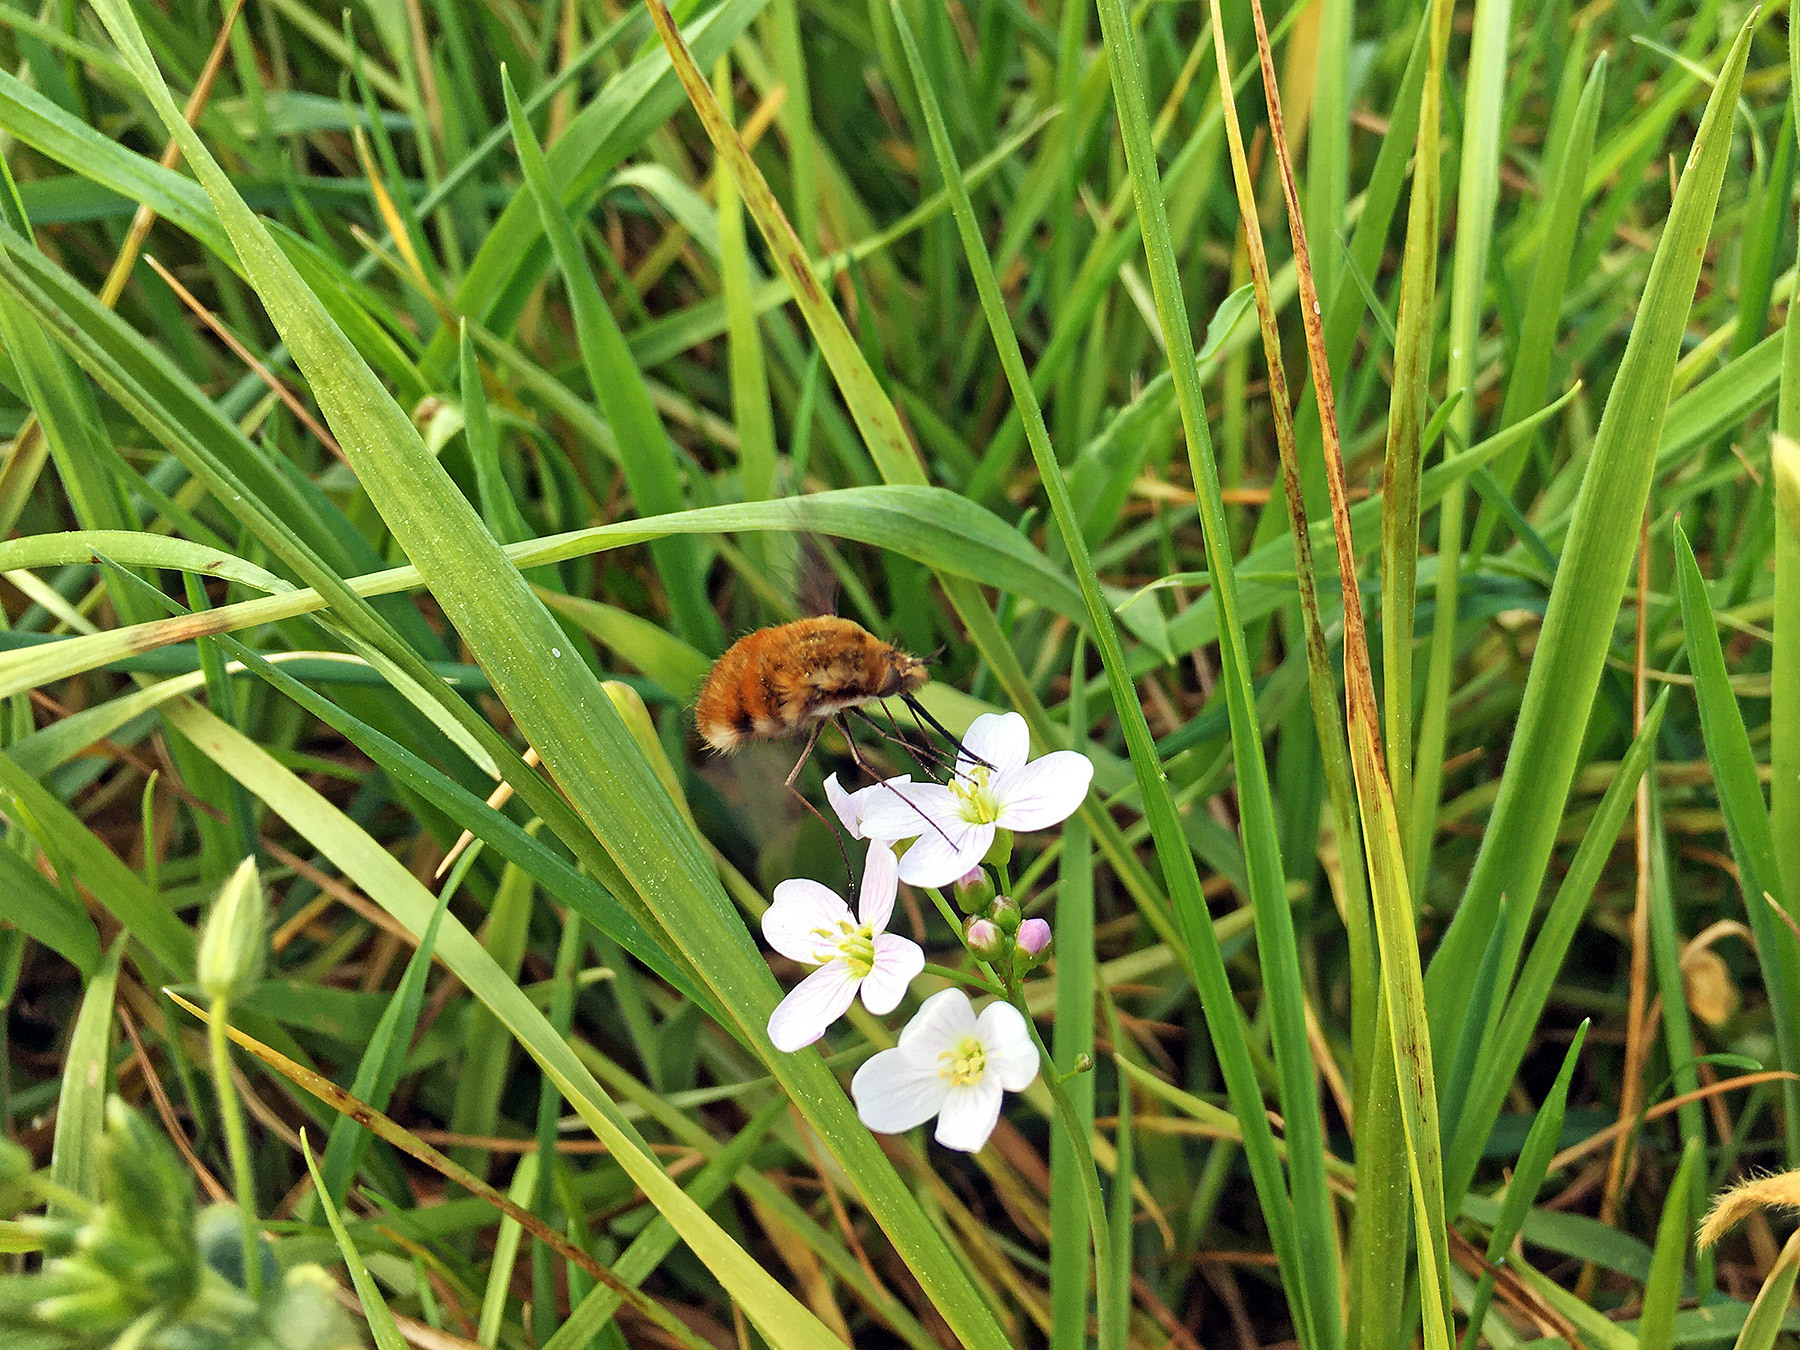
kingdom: Animalia
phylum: Arthropoda
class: Insecta
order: Diptera
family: Bombyliidae
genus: Bombylius
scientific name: Bombylius major
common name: Bee fly
